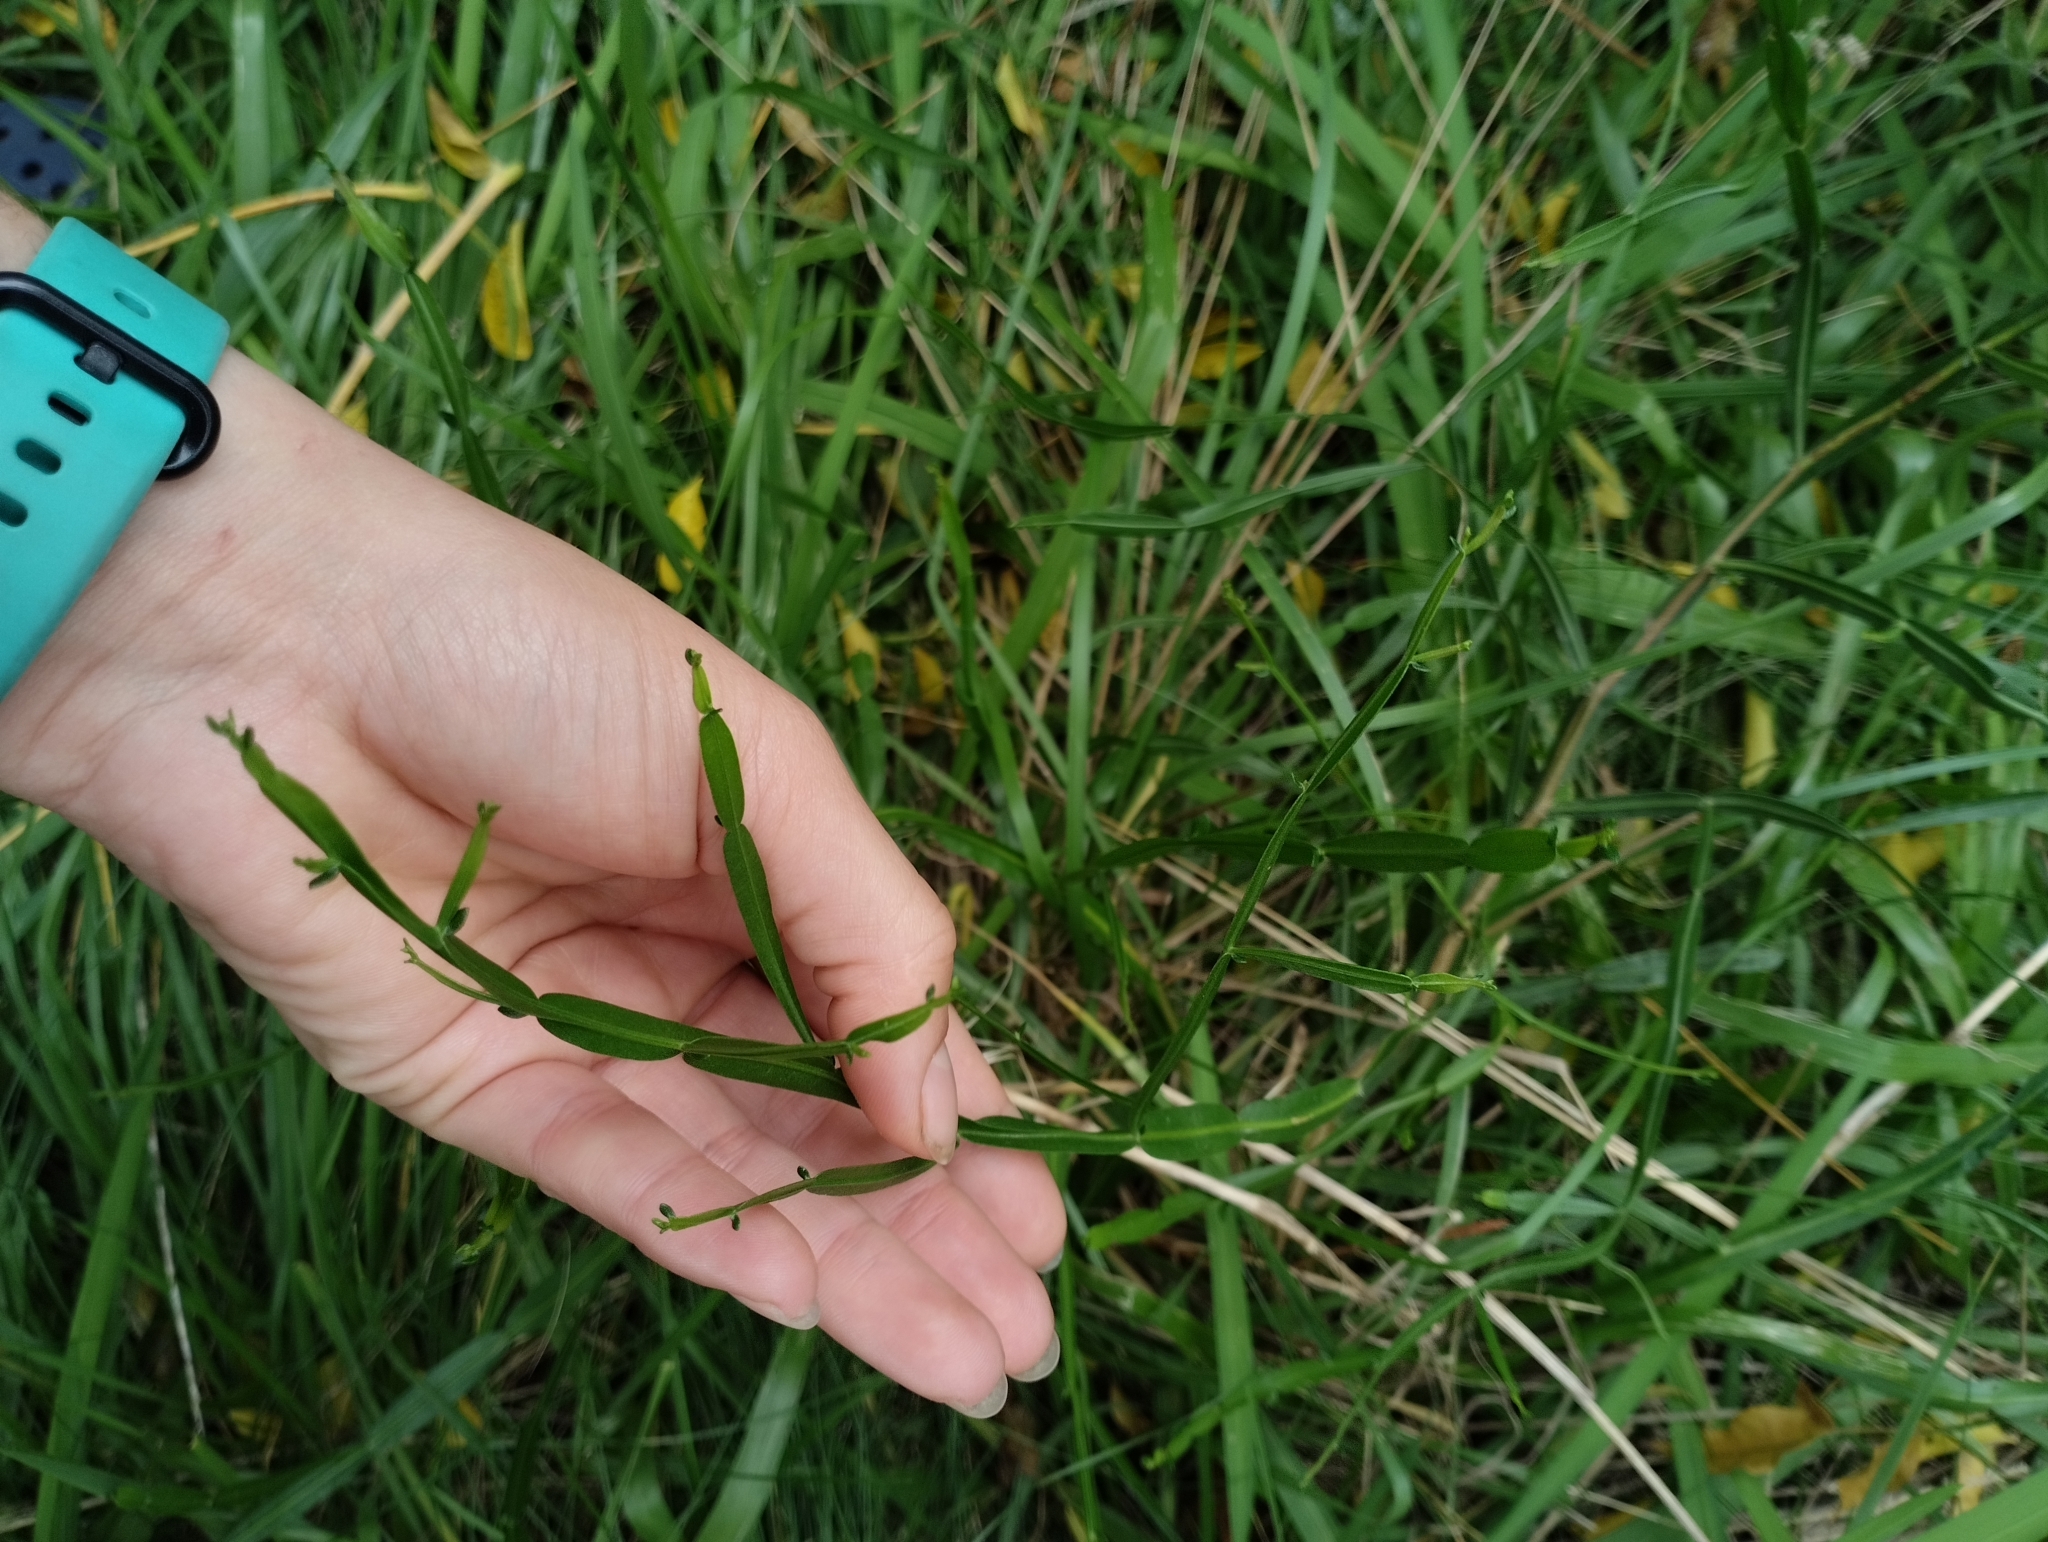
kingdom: Plantae
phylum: Tracheophyta
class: Magnoliopsida
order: Asterales
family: Asteraceae
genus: Baccharis
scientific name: Baccharis trimera
